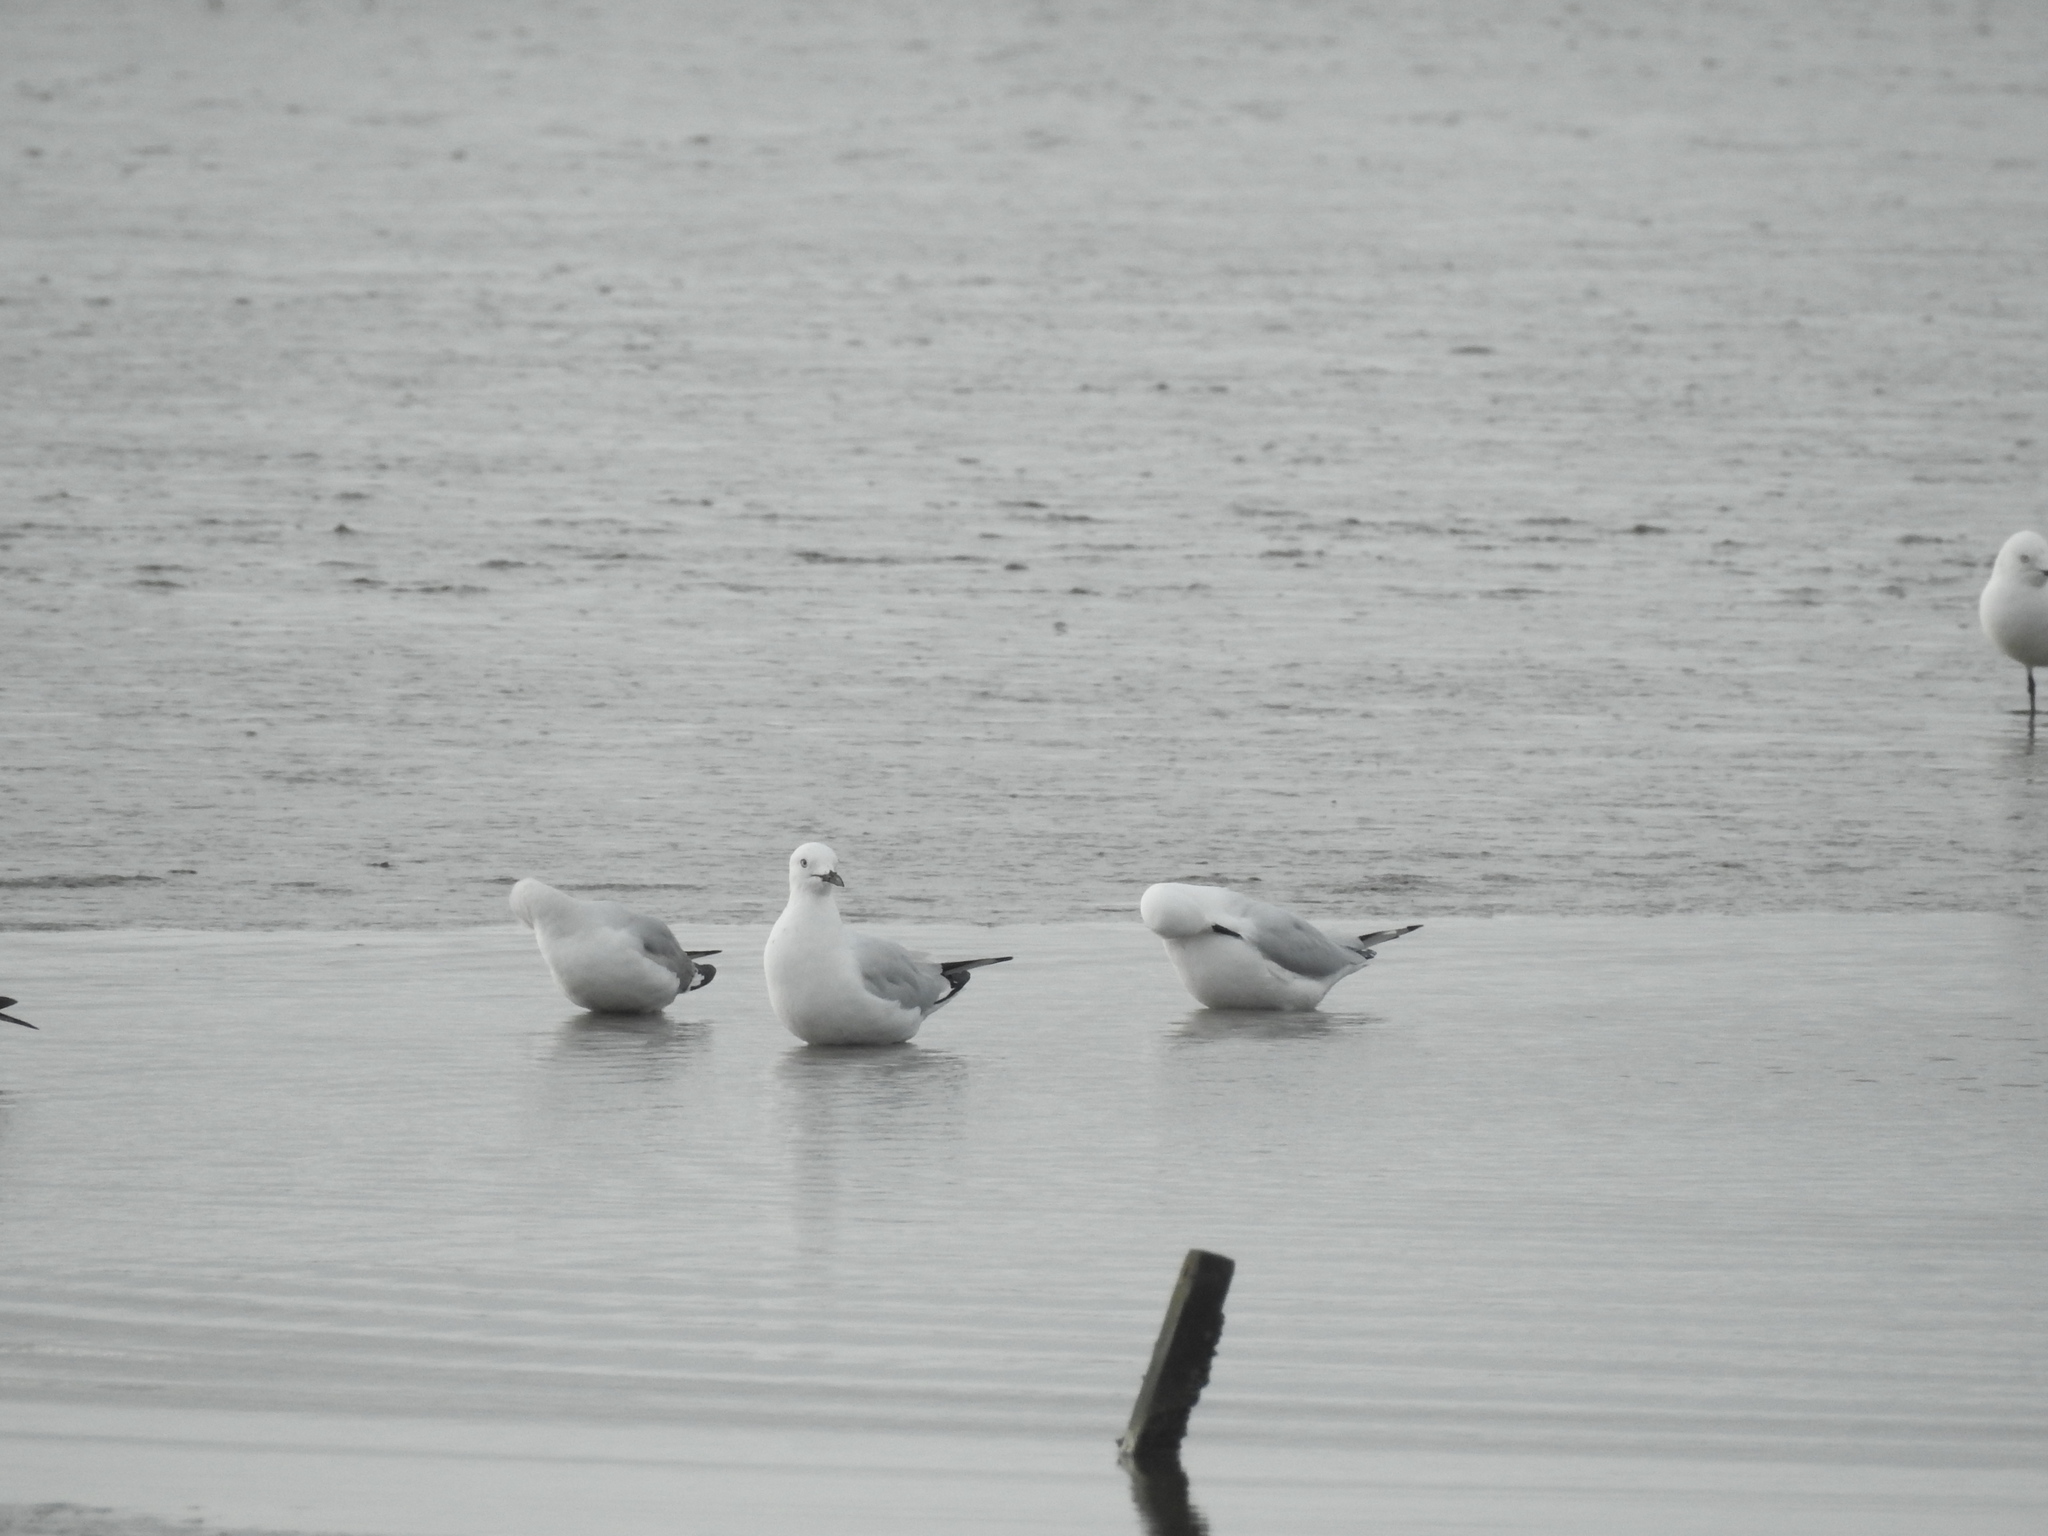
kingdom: Animalia
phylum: Chordata
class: Aves
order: Charadriiformes
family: Laridae
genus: Chroicocephalus
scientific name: Chroicocephalus novaehollandiae
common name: Silver gull
